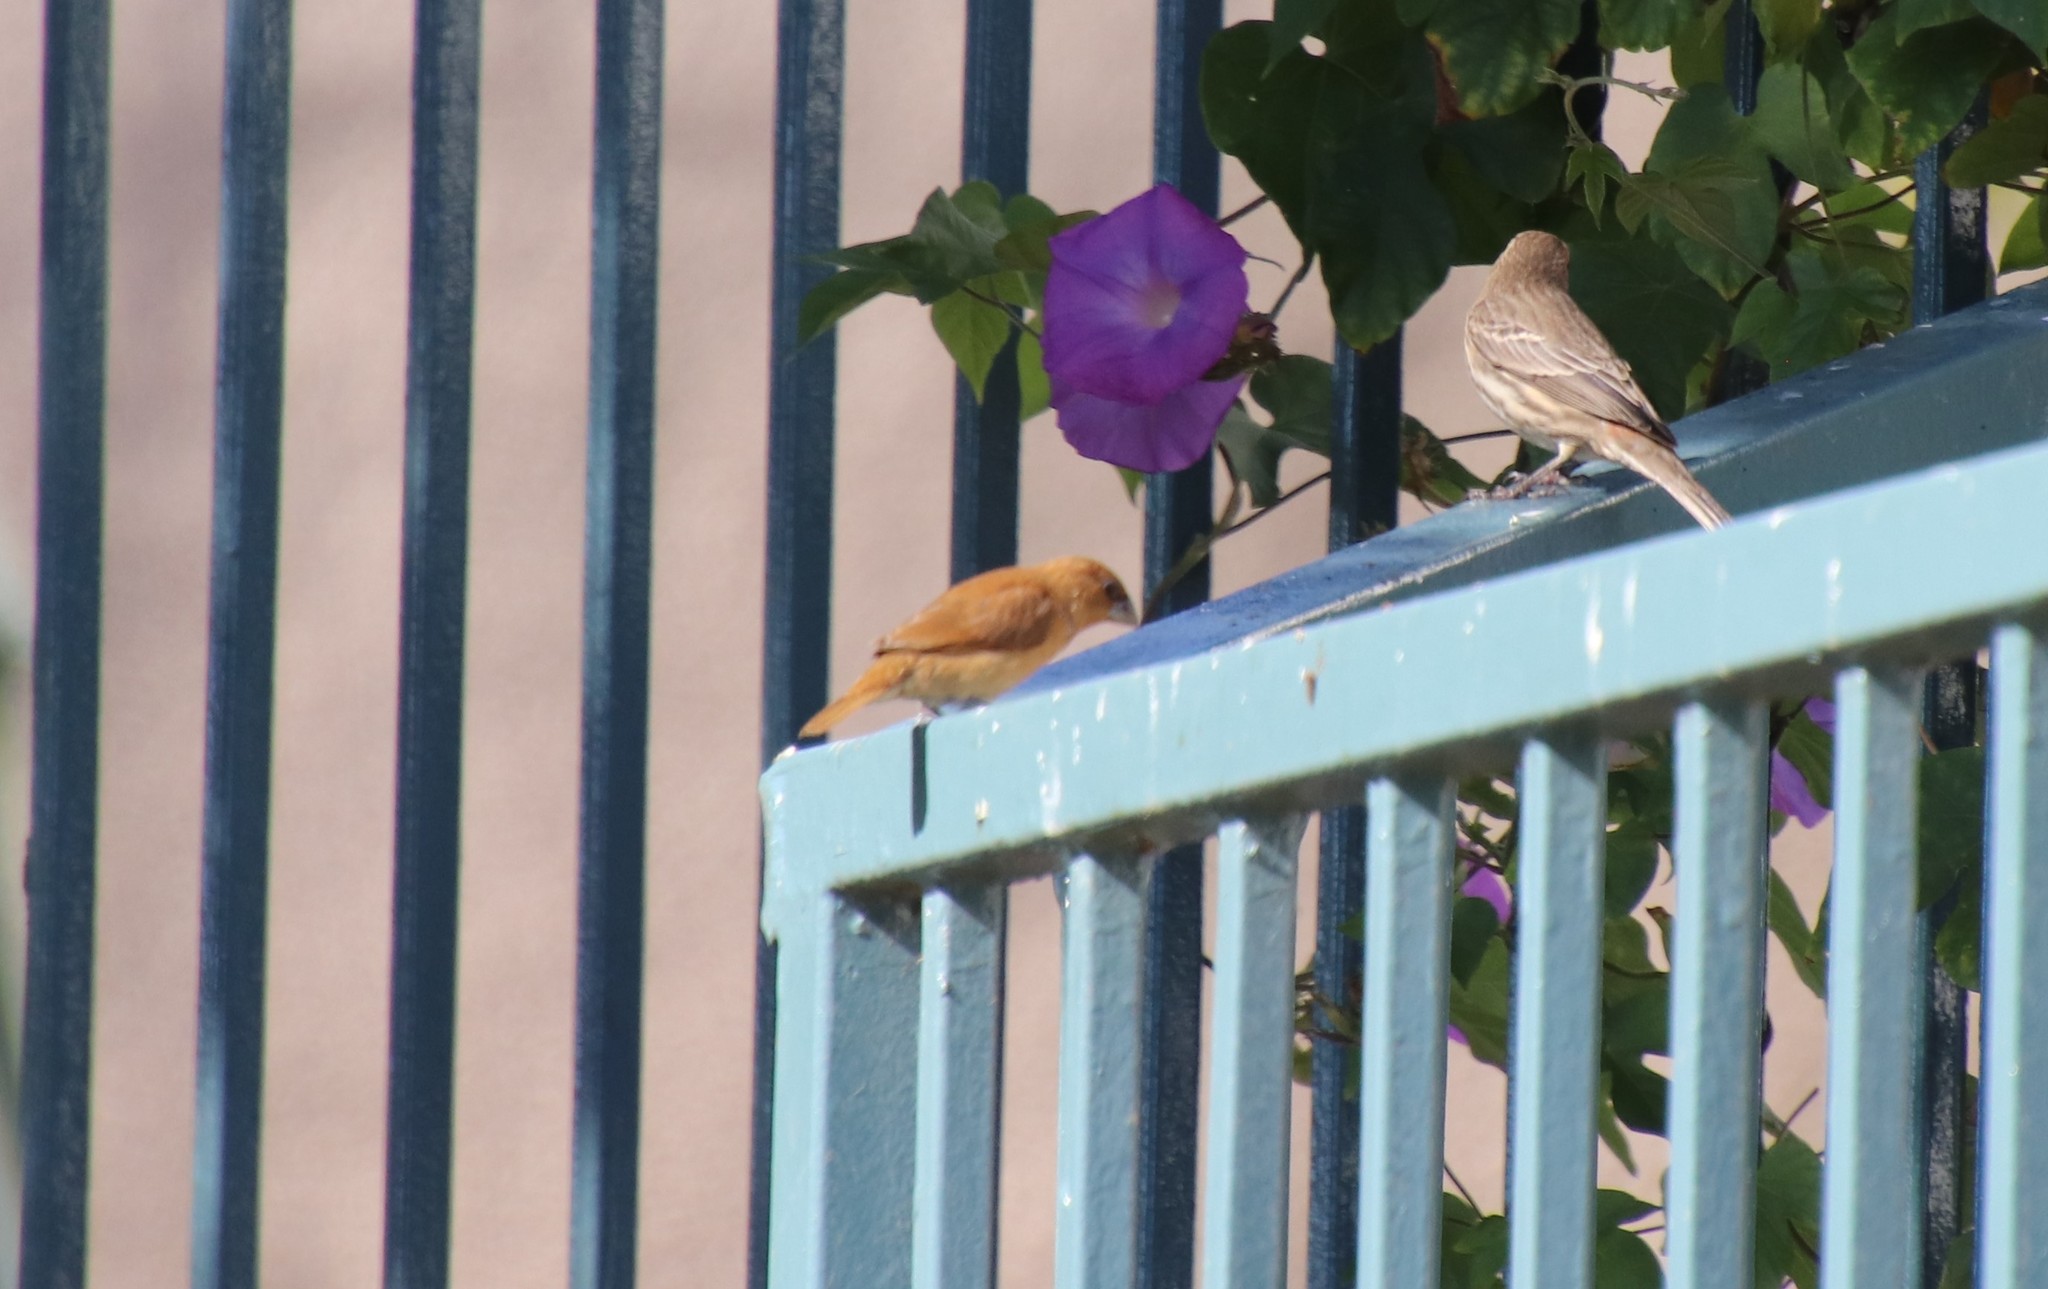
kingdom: Animalia
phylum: Chordata
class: Aves
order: Passeriformes
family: Estrildidae
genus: Lonchura
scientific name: Lonchura punctulata
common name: Scaly-breasted munia
